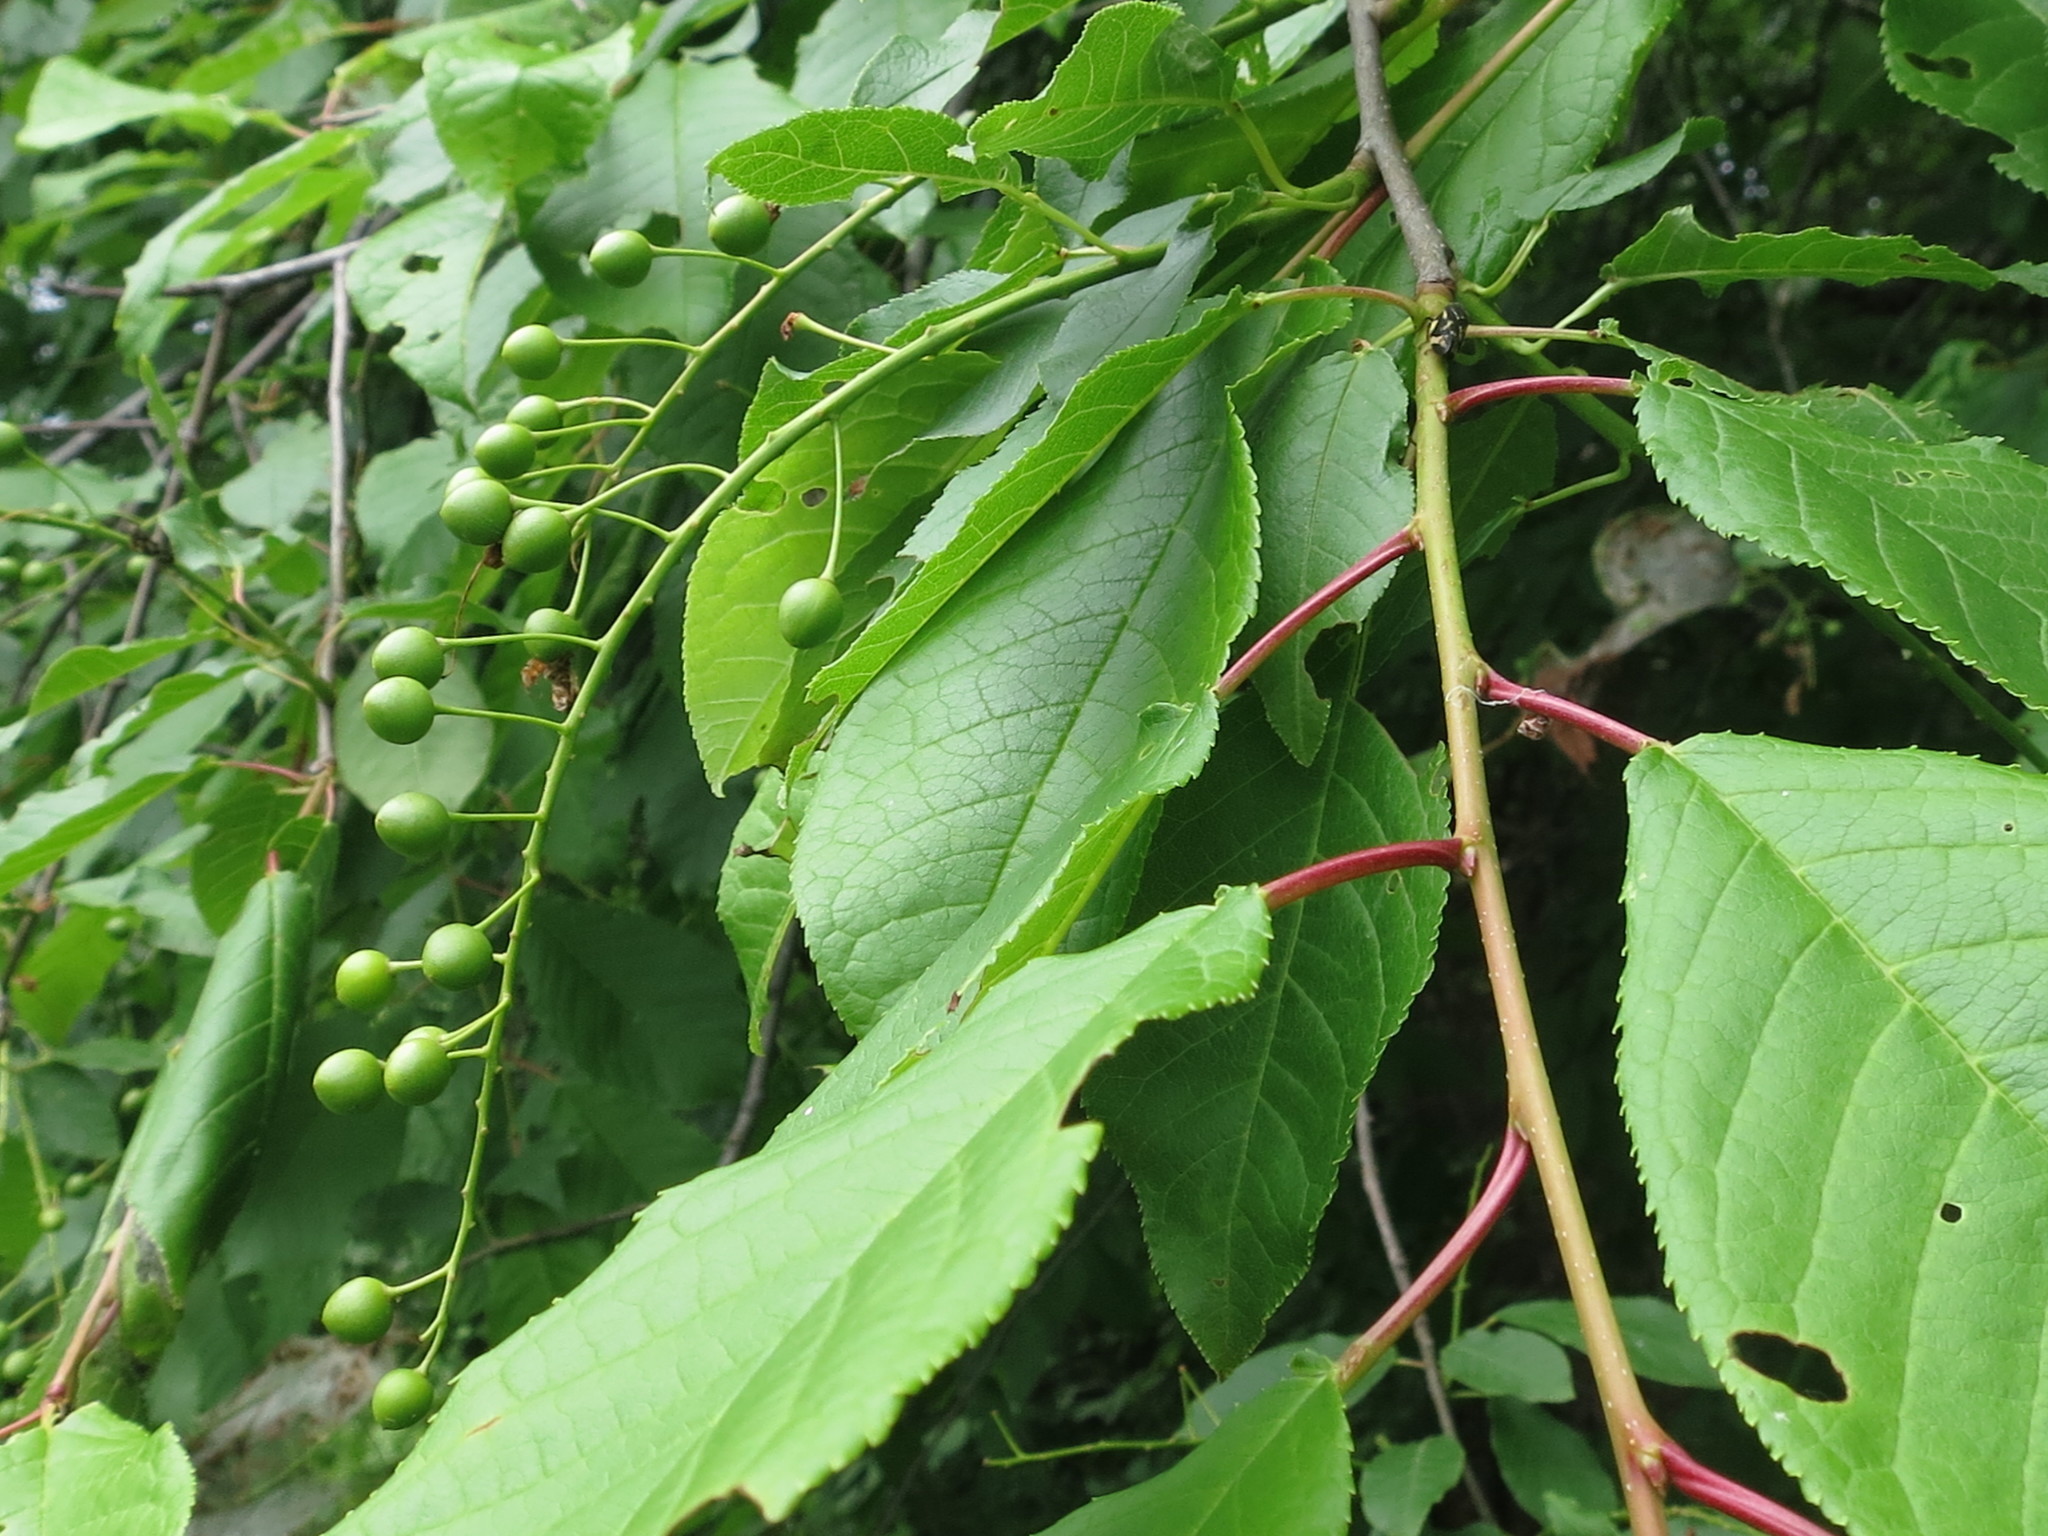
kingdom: Plantae
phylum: Tracheophyta
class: Magnoliopsida
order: Rosales
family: Rosaceae
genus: Prunus
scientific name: Prunus padus
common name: Bird cherry
